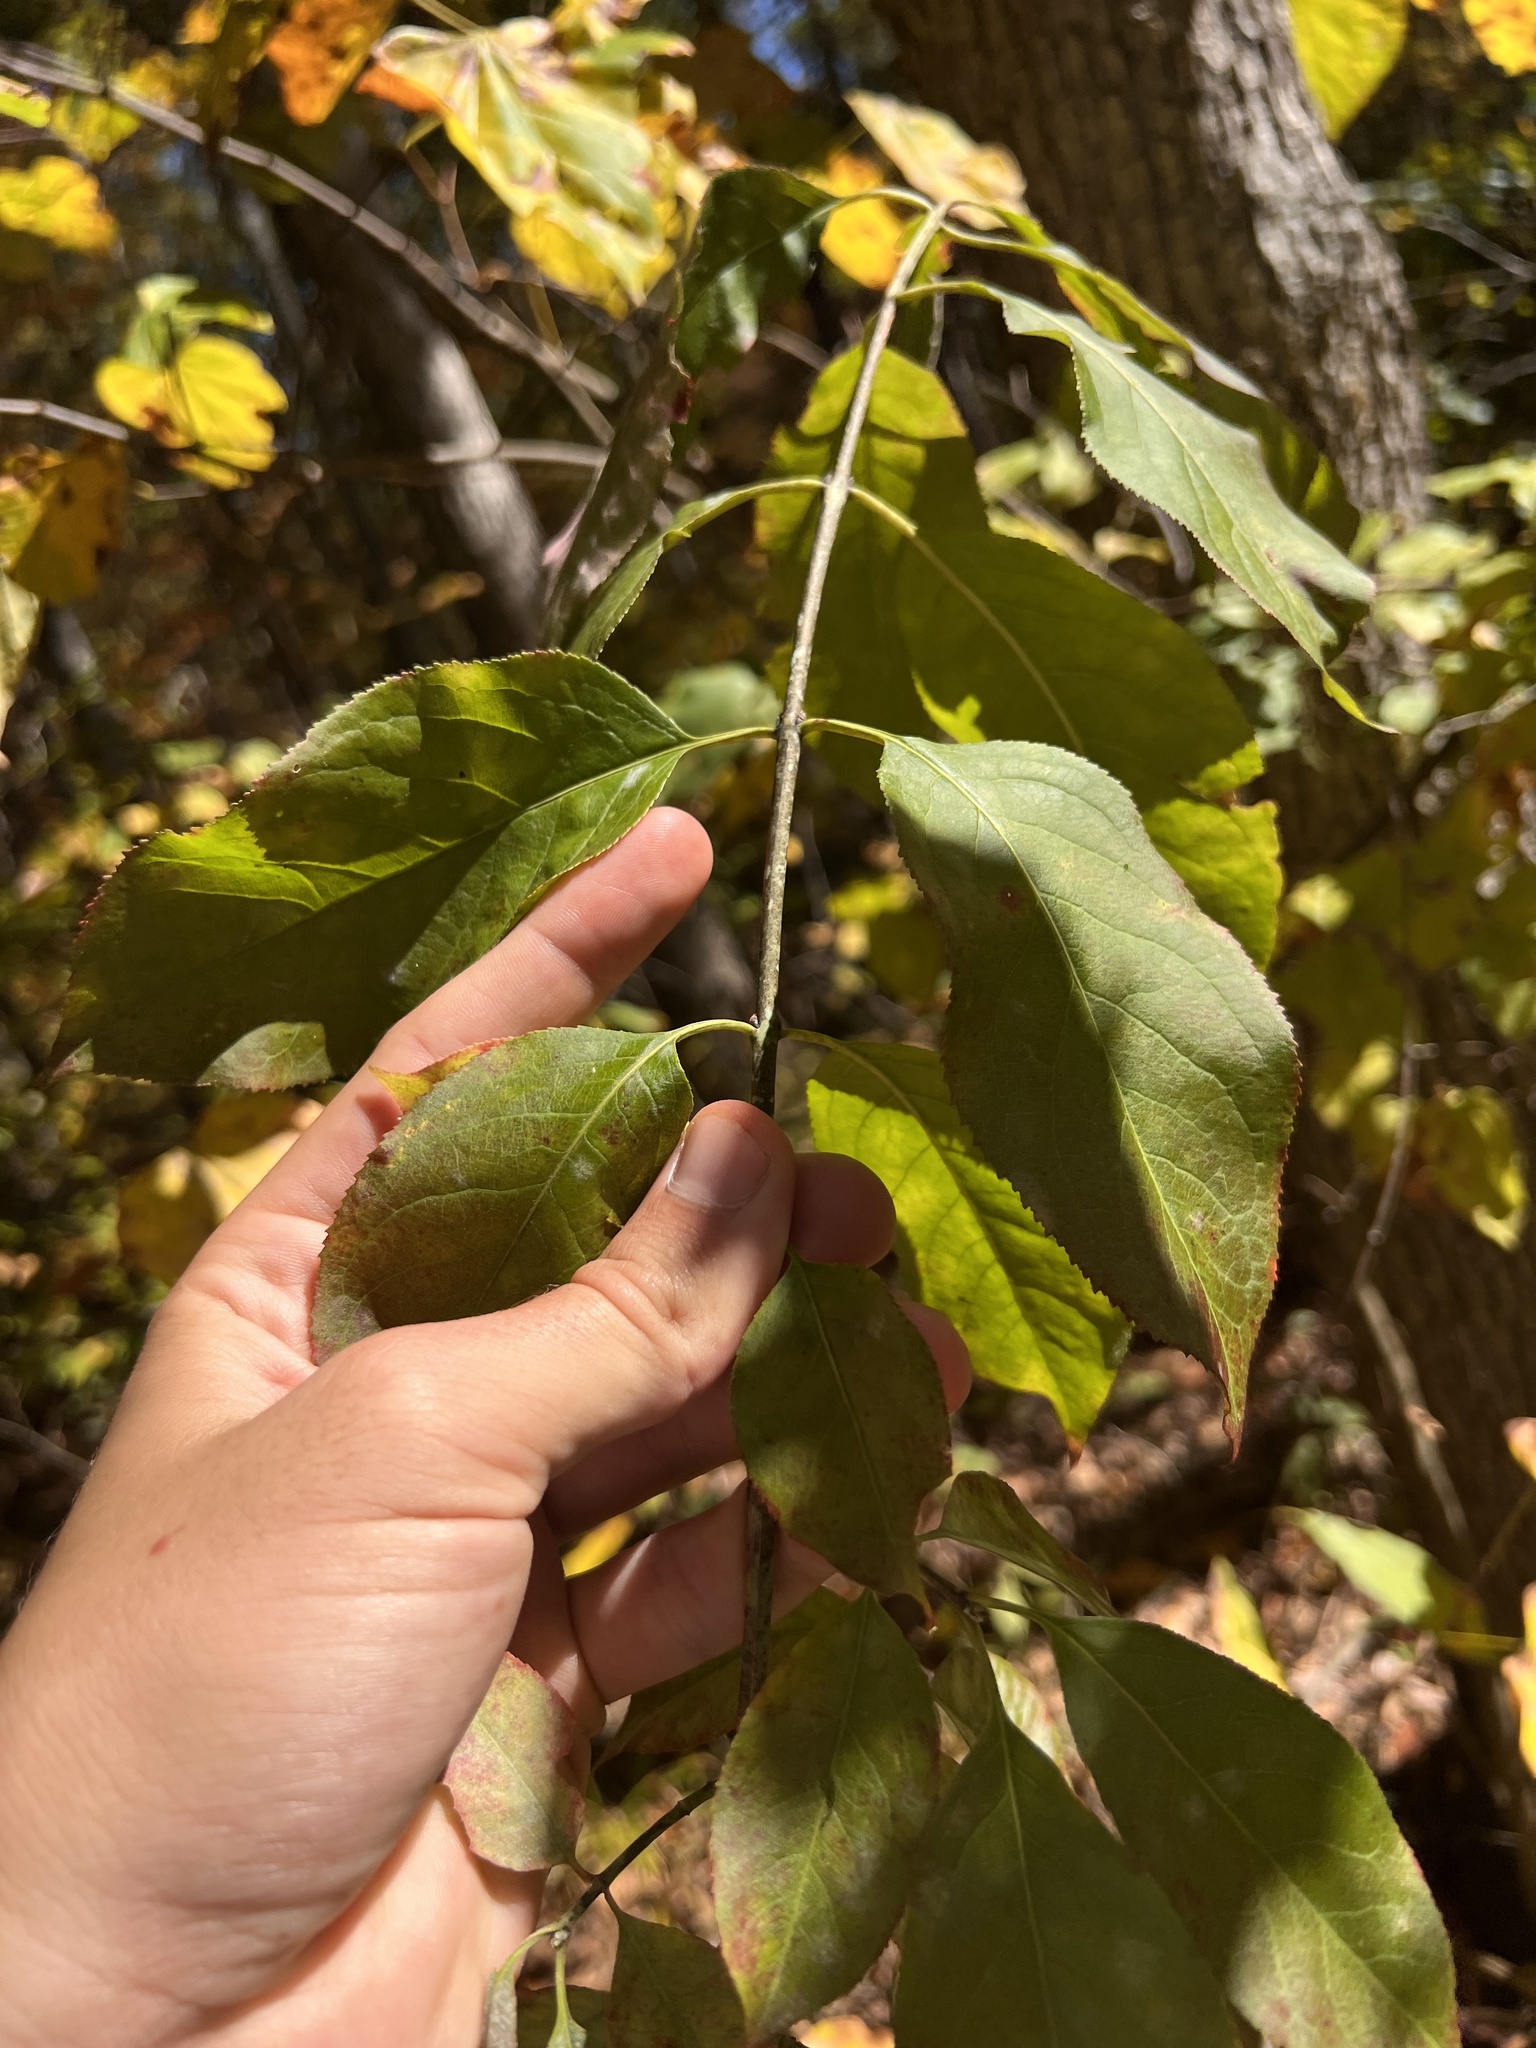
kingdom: Plantae
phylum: Tracheophyta
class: Magnoliopsida
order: Celastrales
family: Celastraceae
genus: Euonymus
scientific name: Euonymus atropurpureus
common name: Eastern wahoo
